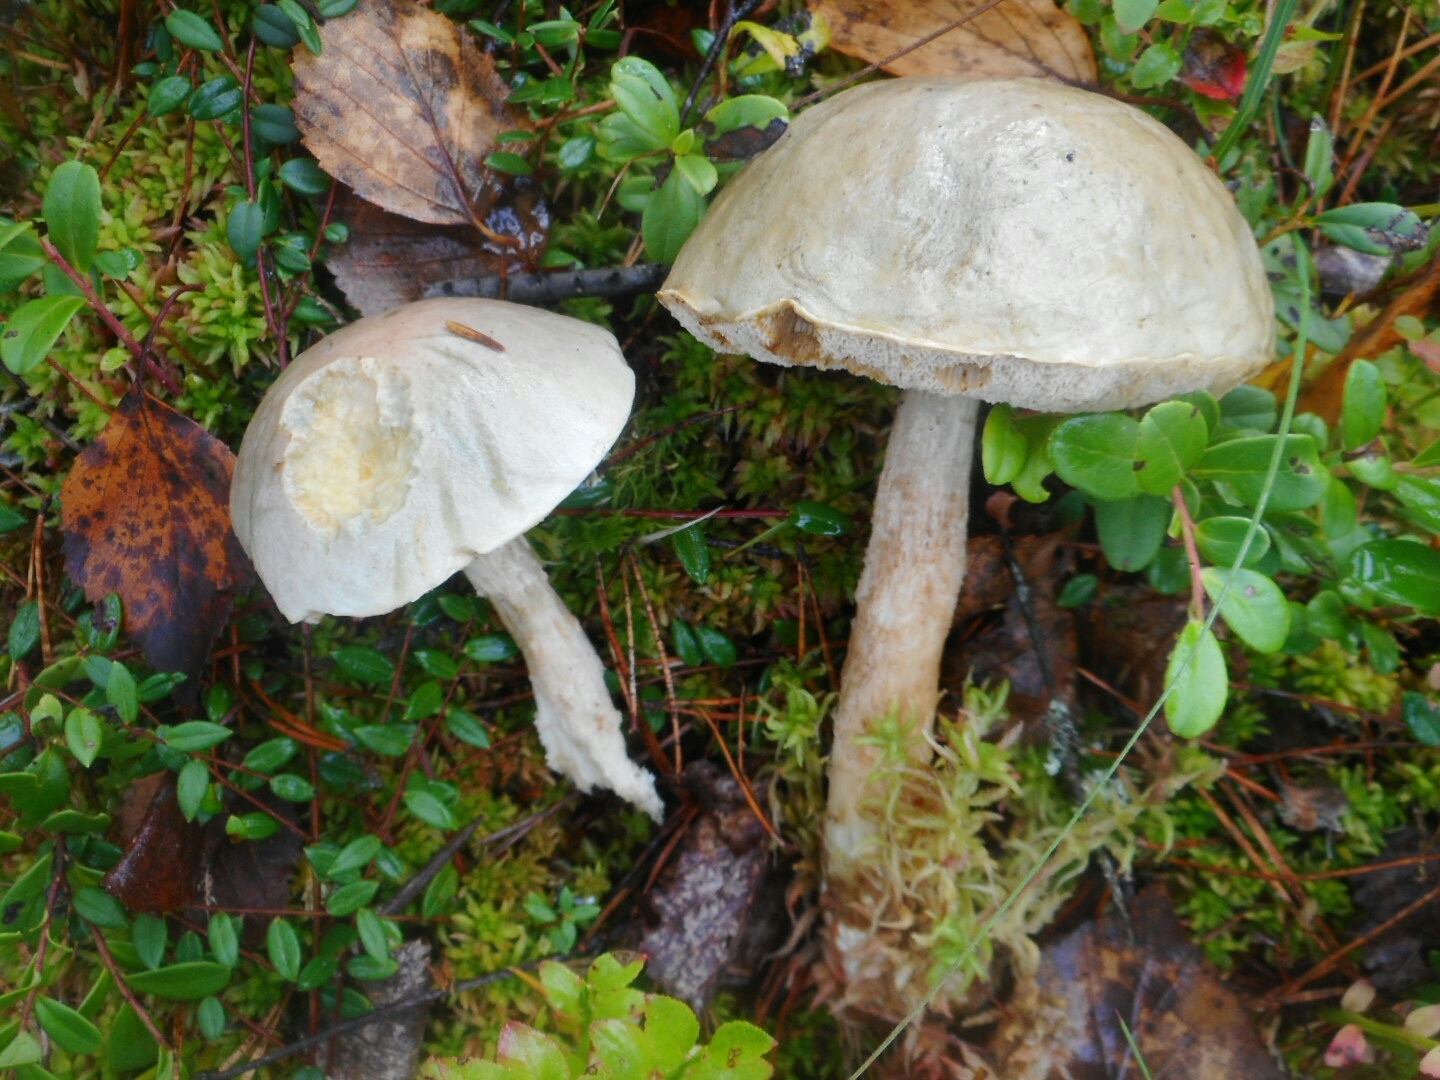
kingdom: Fungi
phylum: Basidiomycota
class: Agaricomycetes
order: Boletales
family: Boletaceae
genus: Leccinum
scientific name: Leccinum holopus
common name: Ghost bolete
